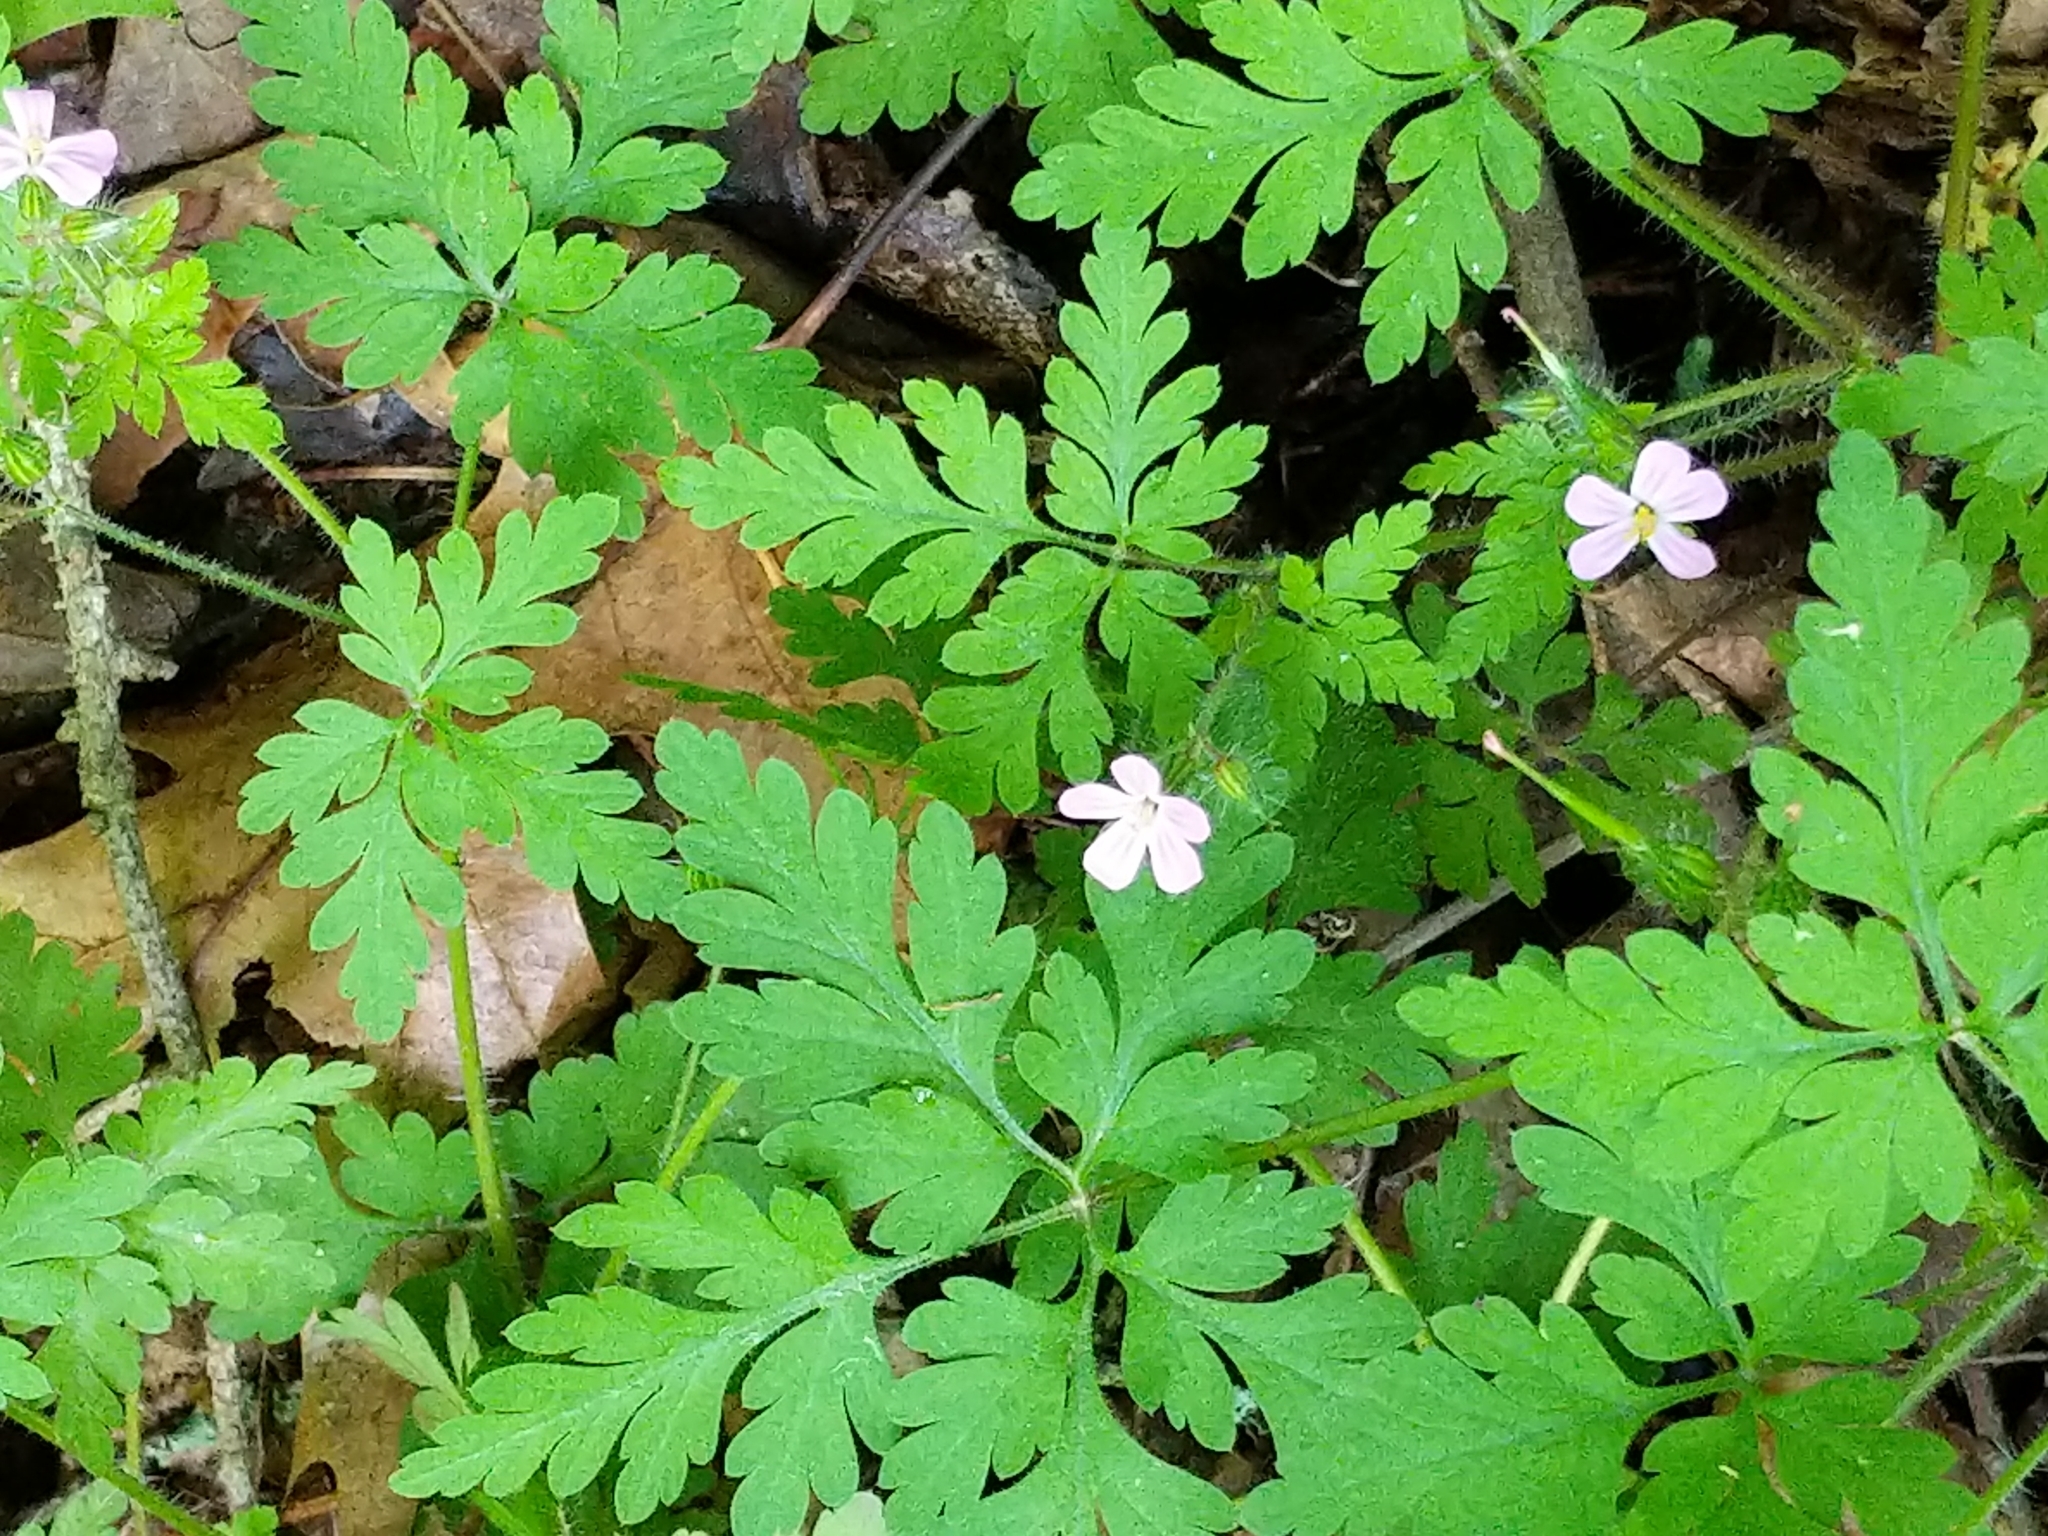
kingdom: Plantae
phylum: Tracheophyta
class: Magnoliopsida
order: Geraniales
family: Geraniaceae
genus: Geranium
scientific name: Geranium robertianum
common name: Herb-robert
